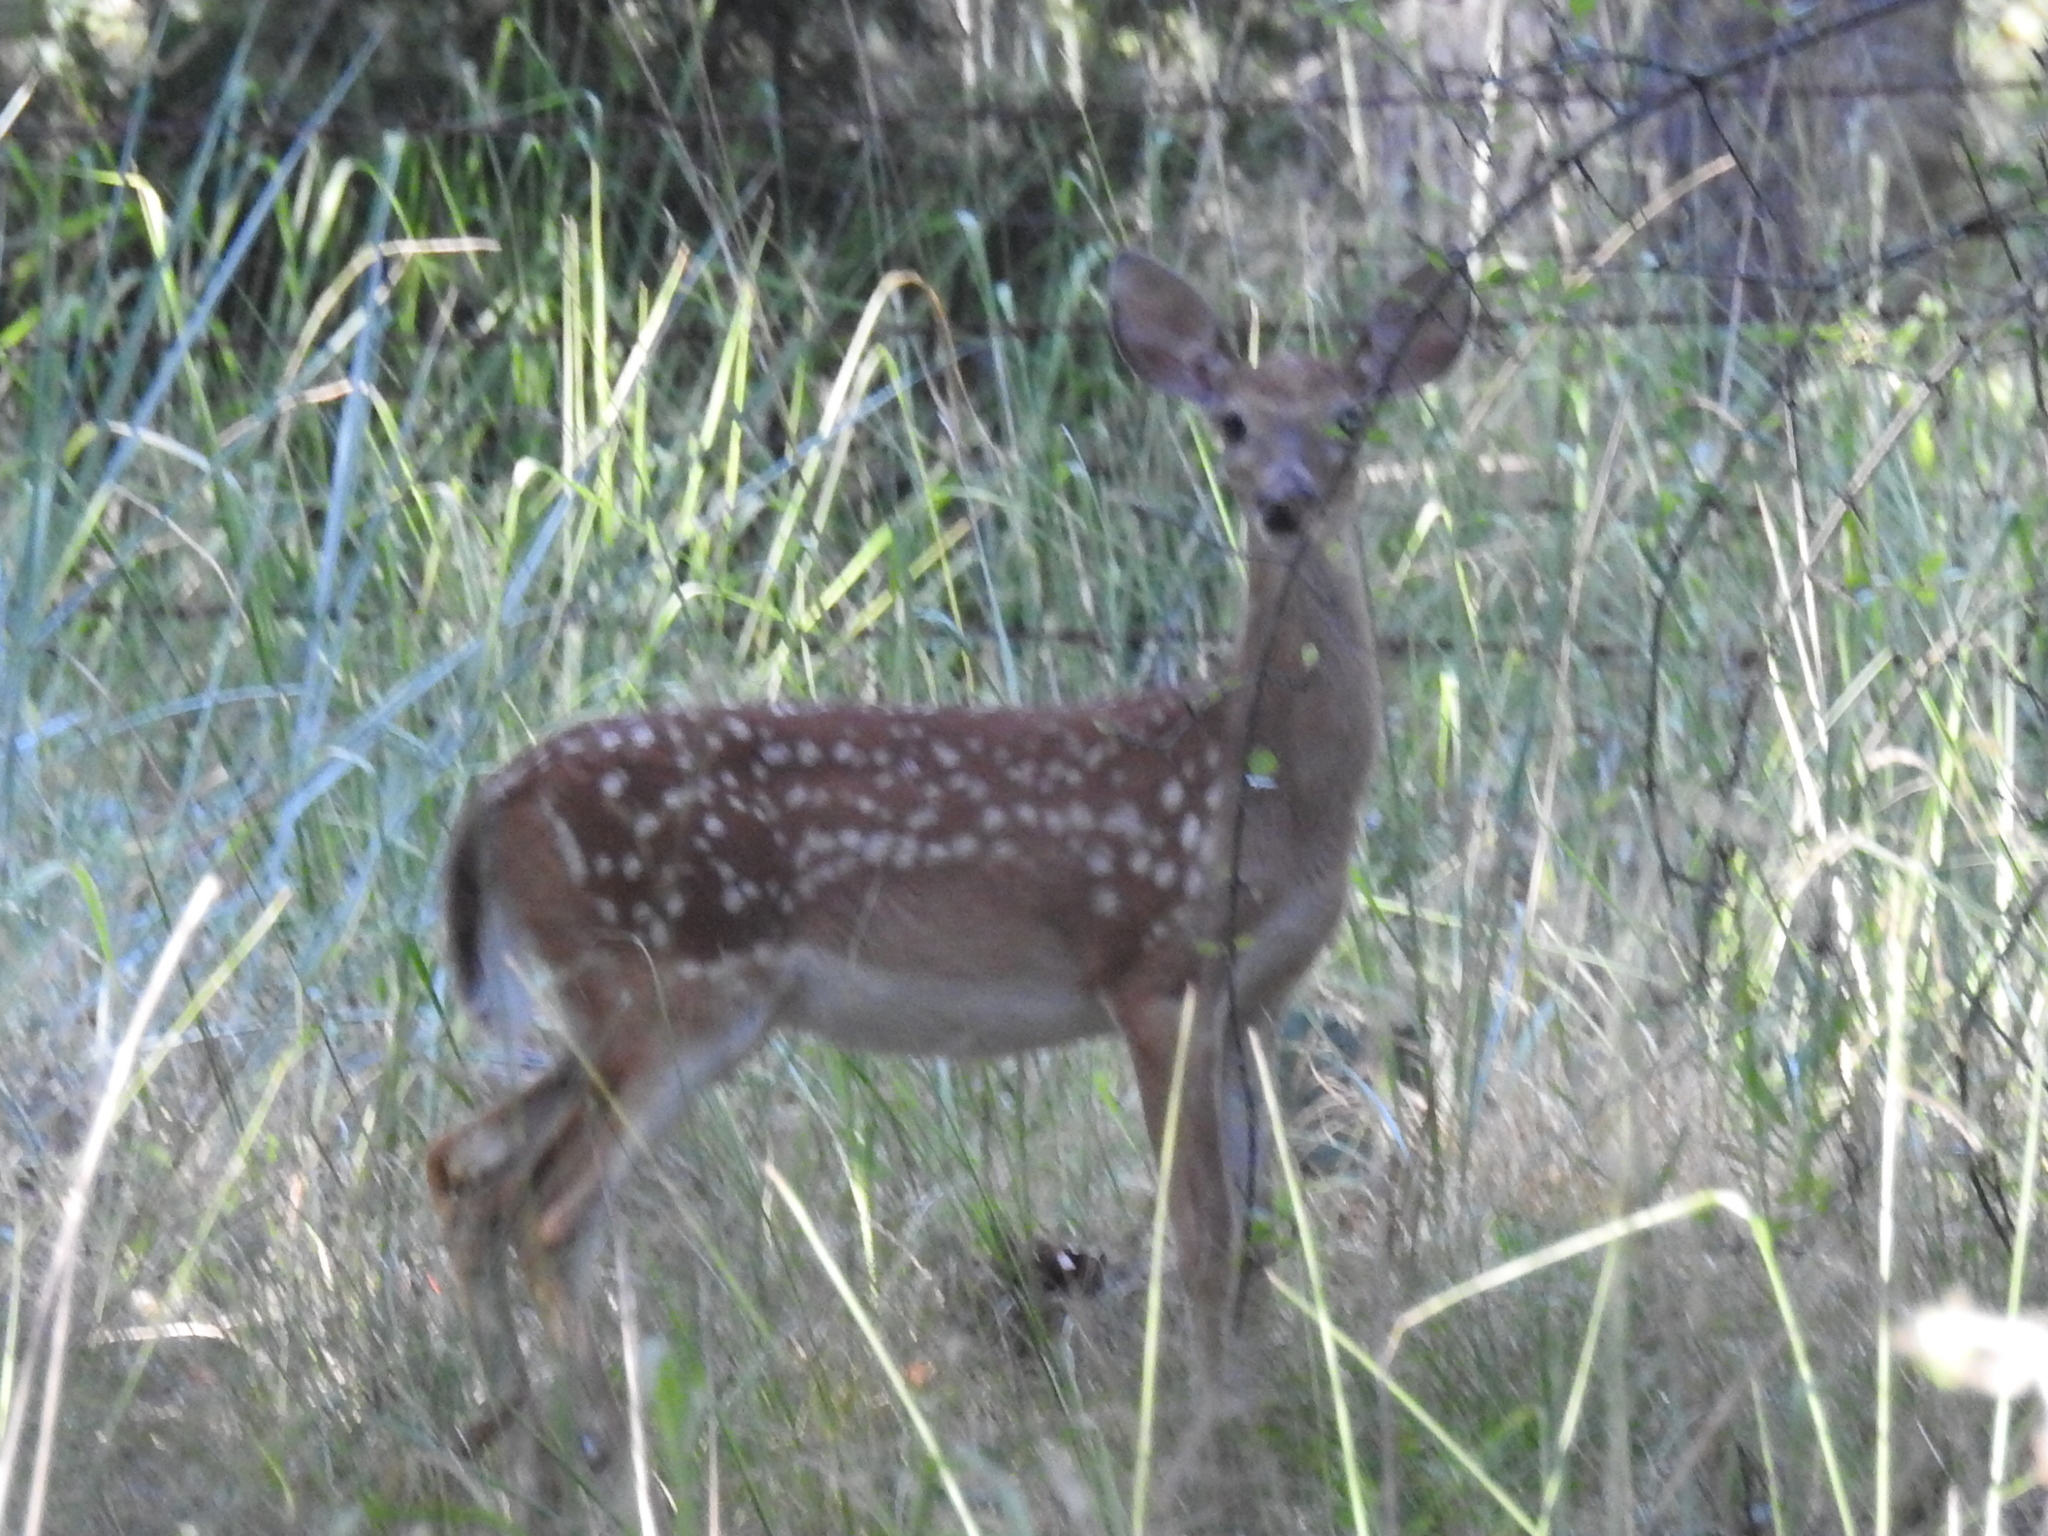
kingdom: Animalia
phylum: Chordata
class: Mammalia
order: Artiodactyla
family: Cervidae
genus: Odocoileus
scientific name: Odocoileus virginianus
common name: White-tailed deer
